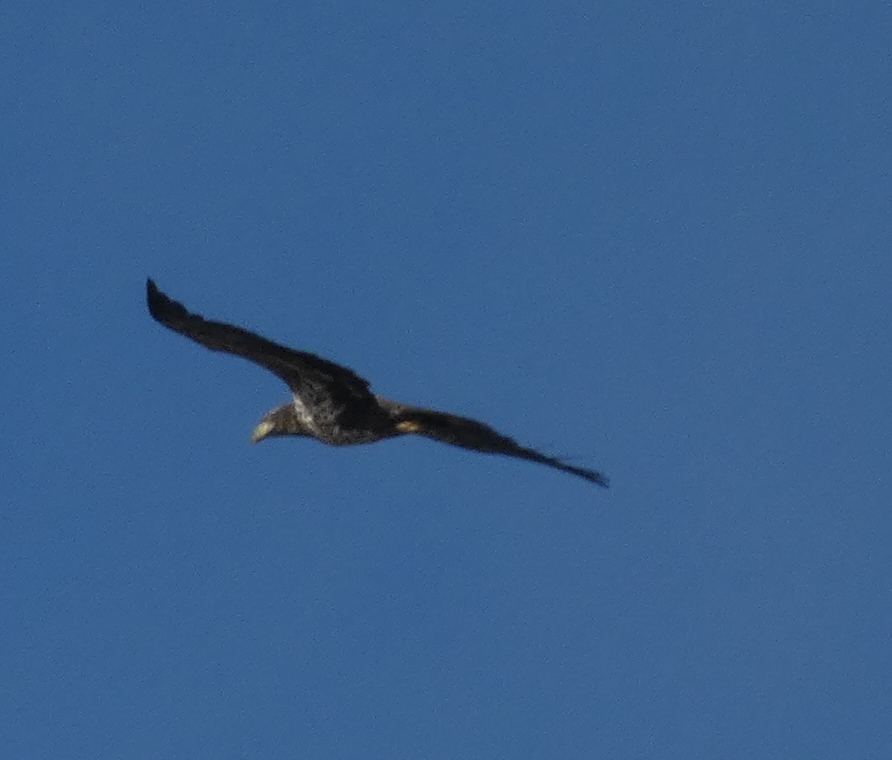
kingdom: Animalia
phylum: Chordata
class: Aves
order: Accipitriformes
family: Accipitridae
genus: Haliaeetus
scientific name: Haliaeetus leucocephalus
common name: Bald eagle
